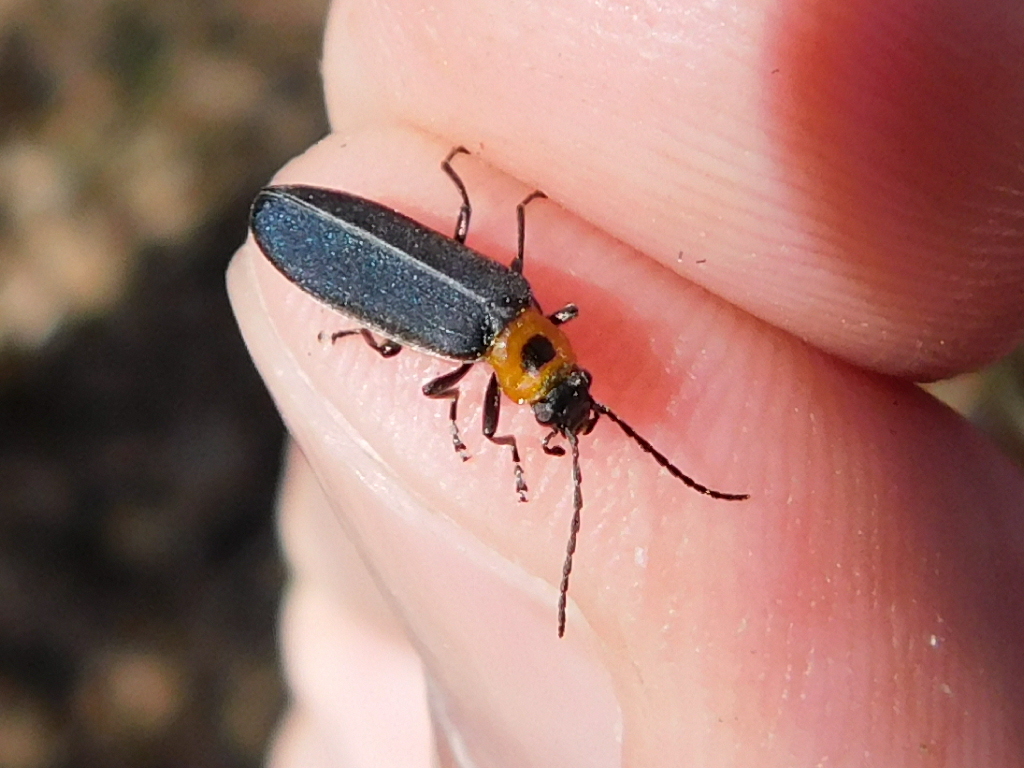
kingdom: Animalia
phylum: Arthropoda
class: Insecta
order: Coleoptera
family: Oedemeridae
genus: Ischnomera
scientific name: Ischnomera
